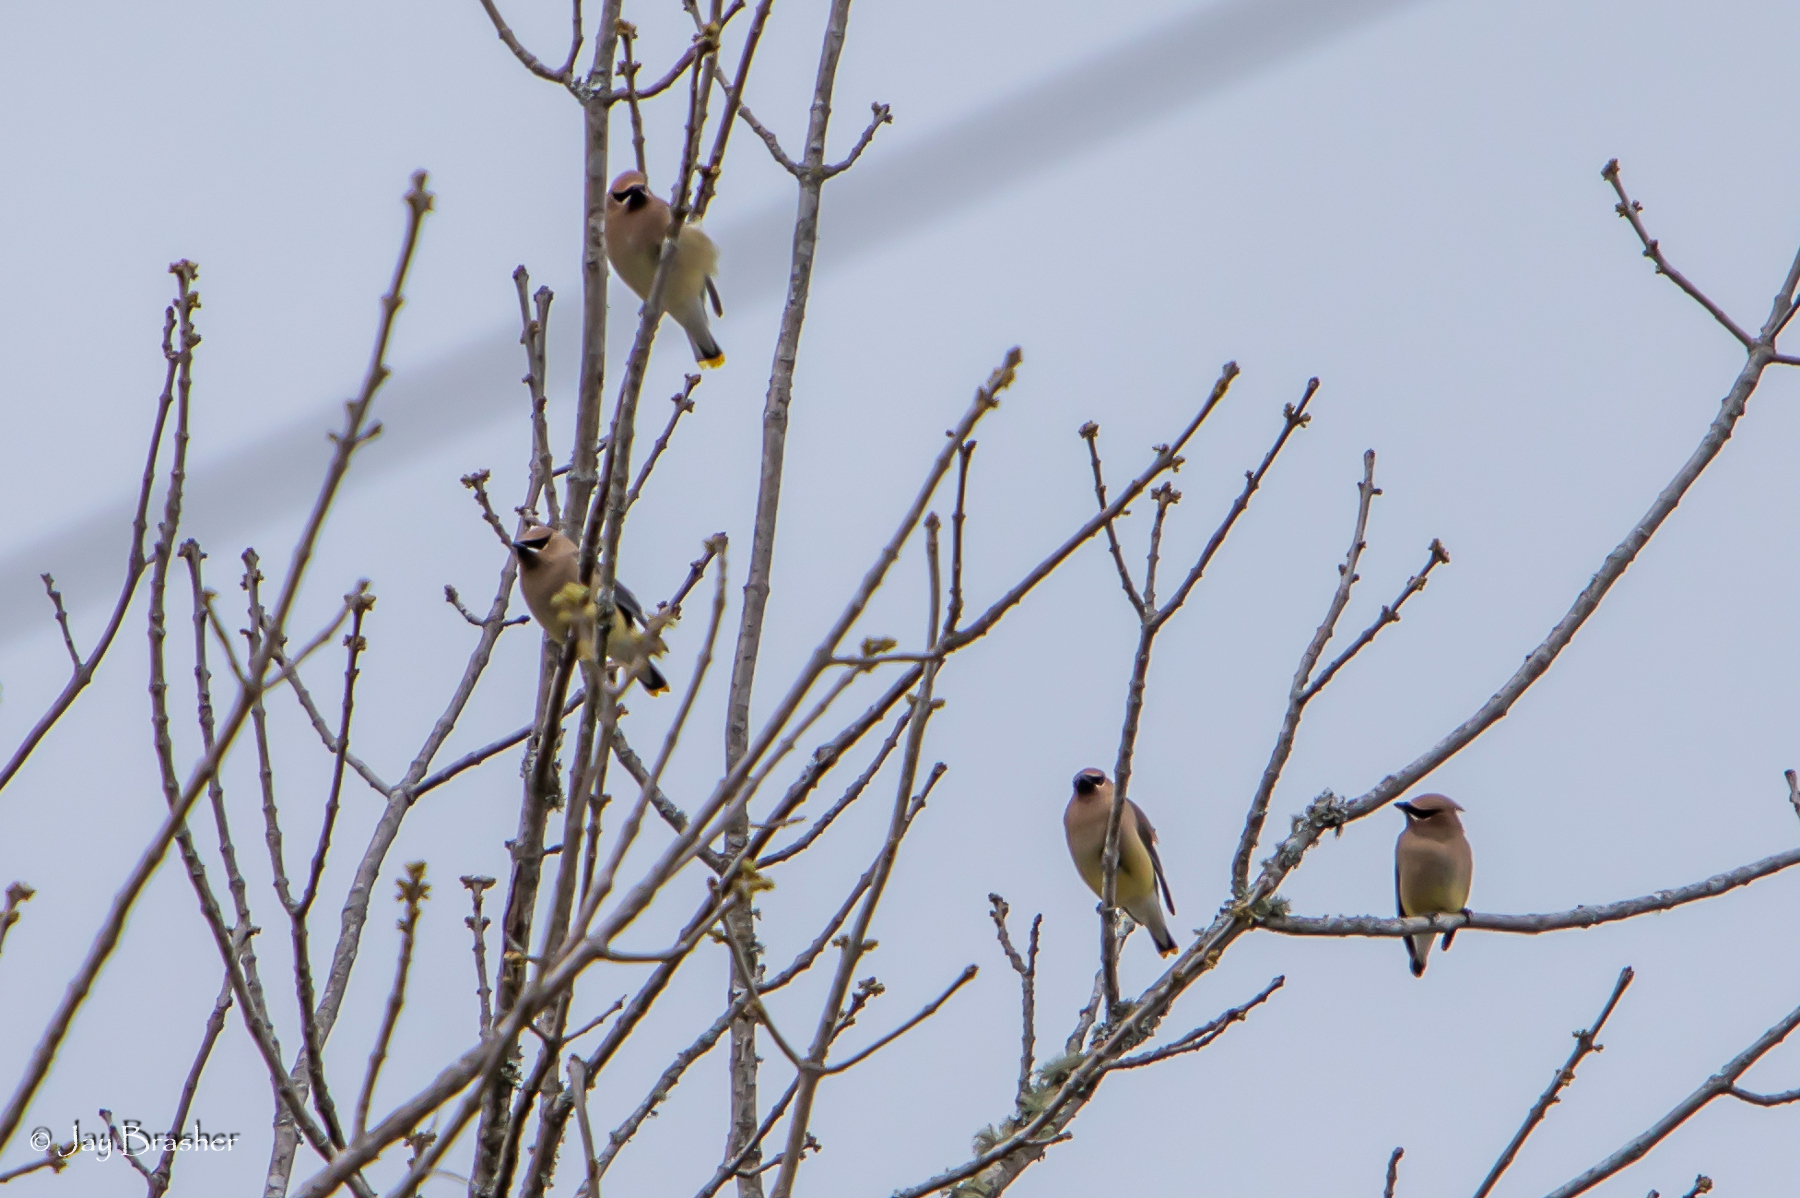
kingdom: Animalia
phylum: Chordata
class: Aves
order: Passeriformes
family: Bombycillidae
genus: Bombycilla
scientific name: Bombycilla cedrorum
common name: Cedar waxwing
